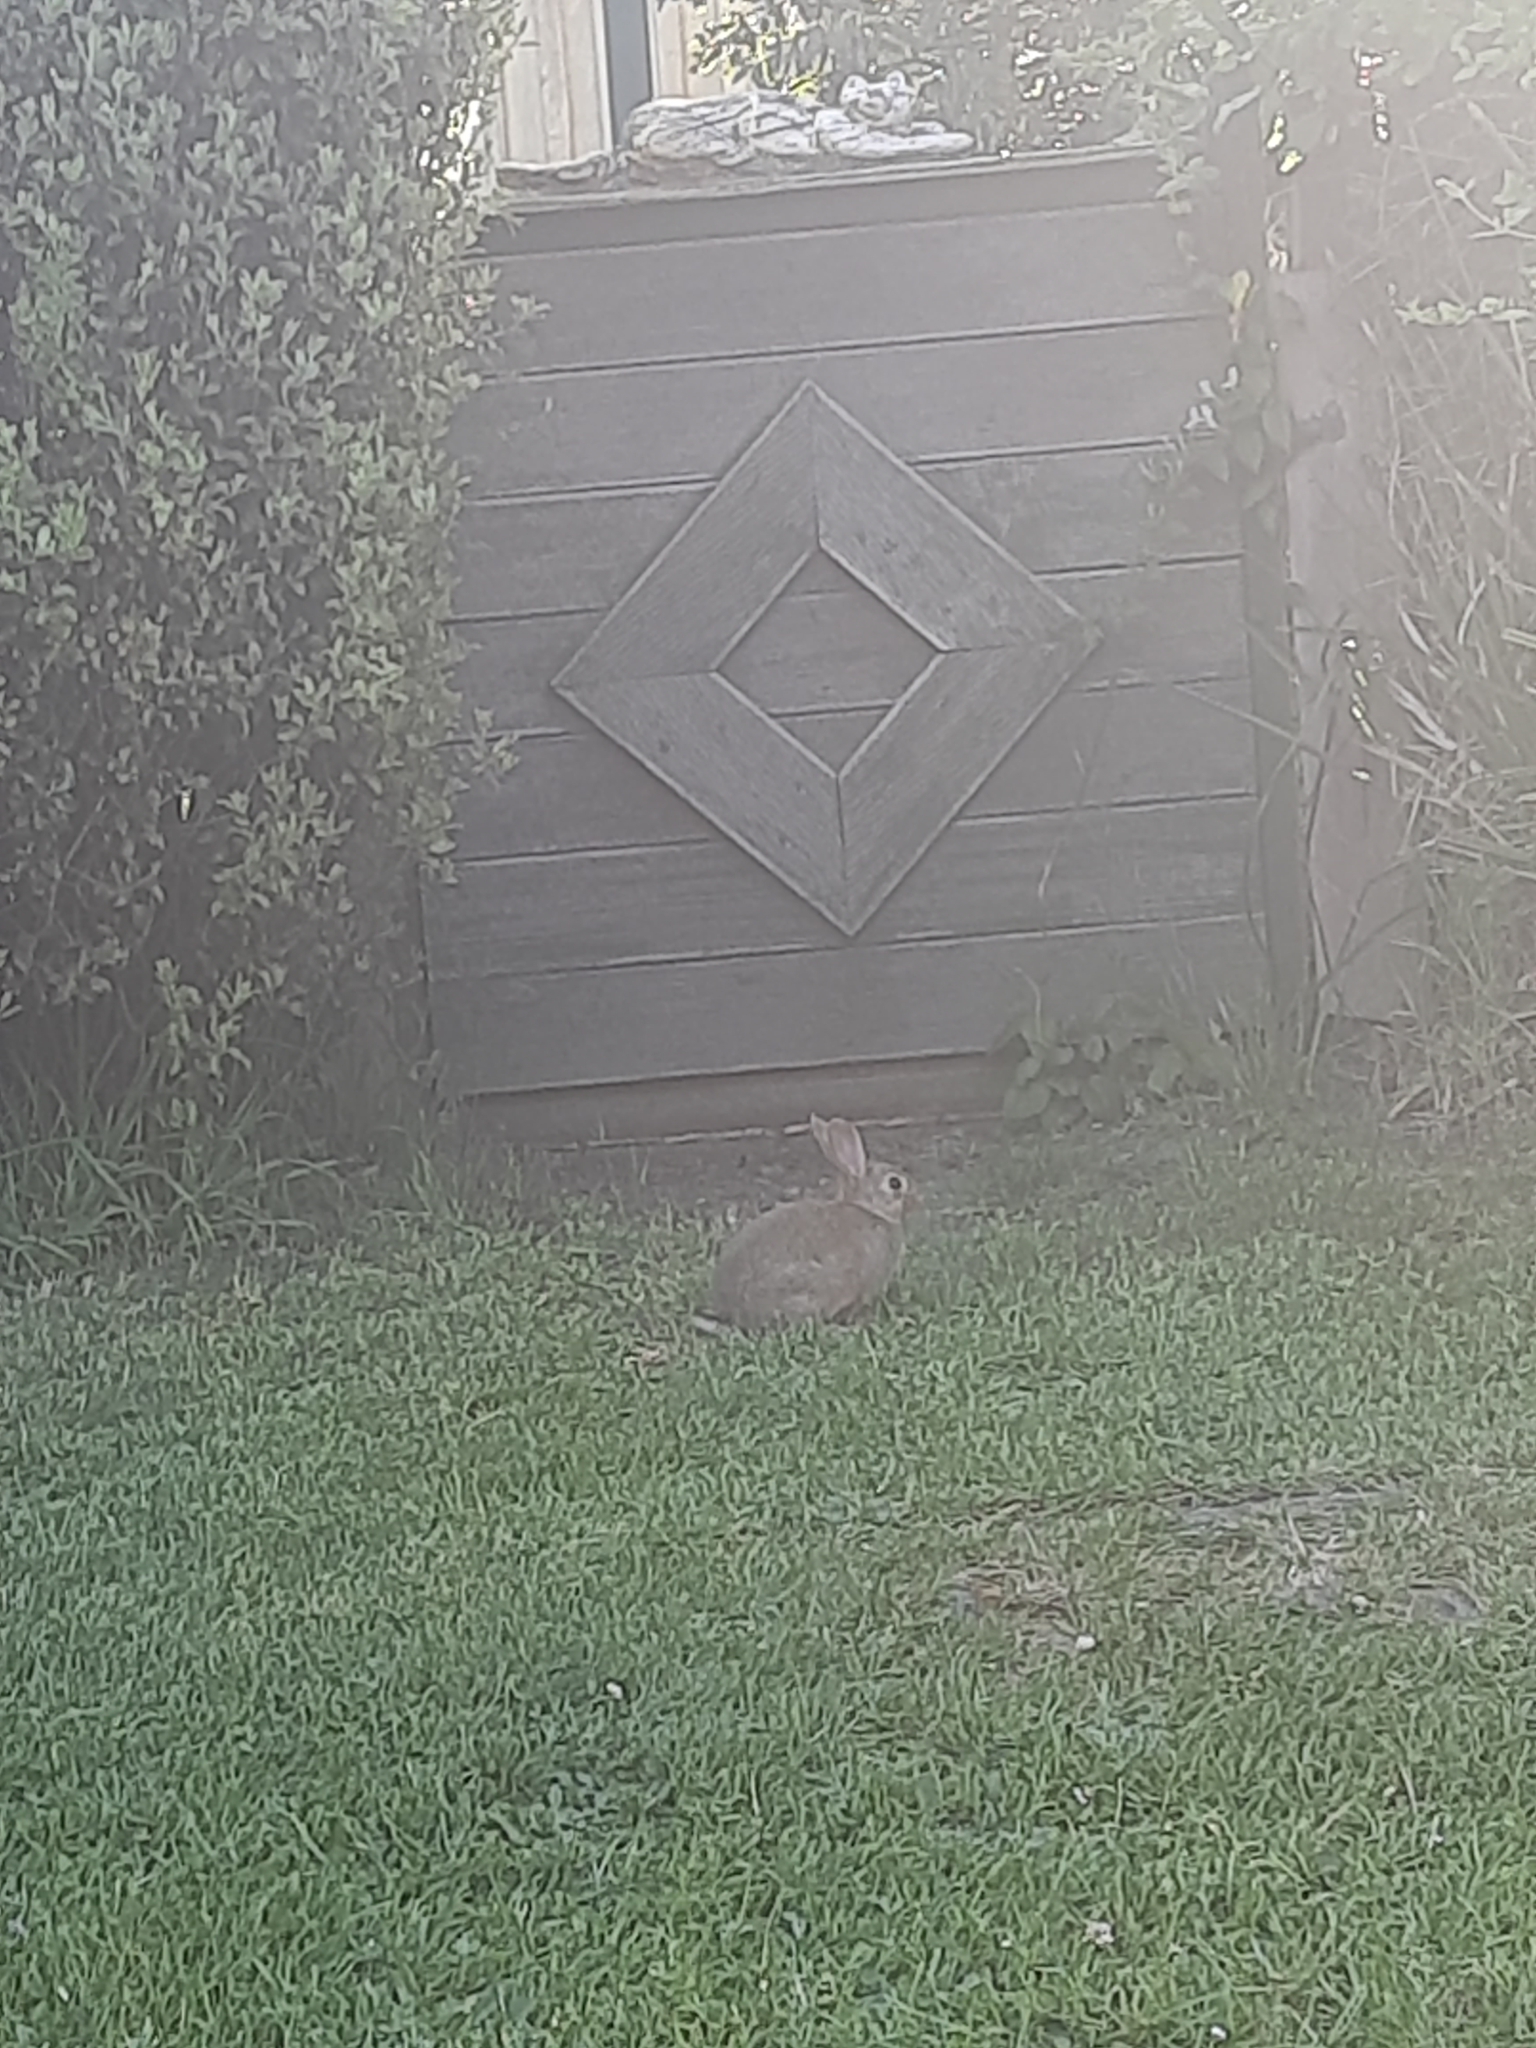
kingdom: Animalia
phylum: Chordata
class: Mammalia
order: Lagomorpha
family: Leporidae
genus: Oryctolagus
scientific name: Oryctolagus cuniculus
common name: European rabbit
